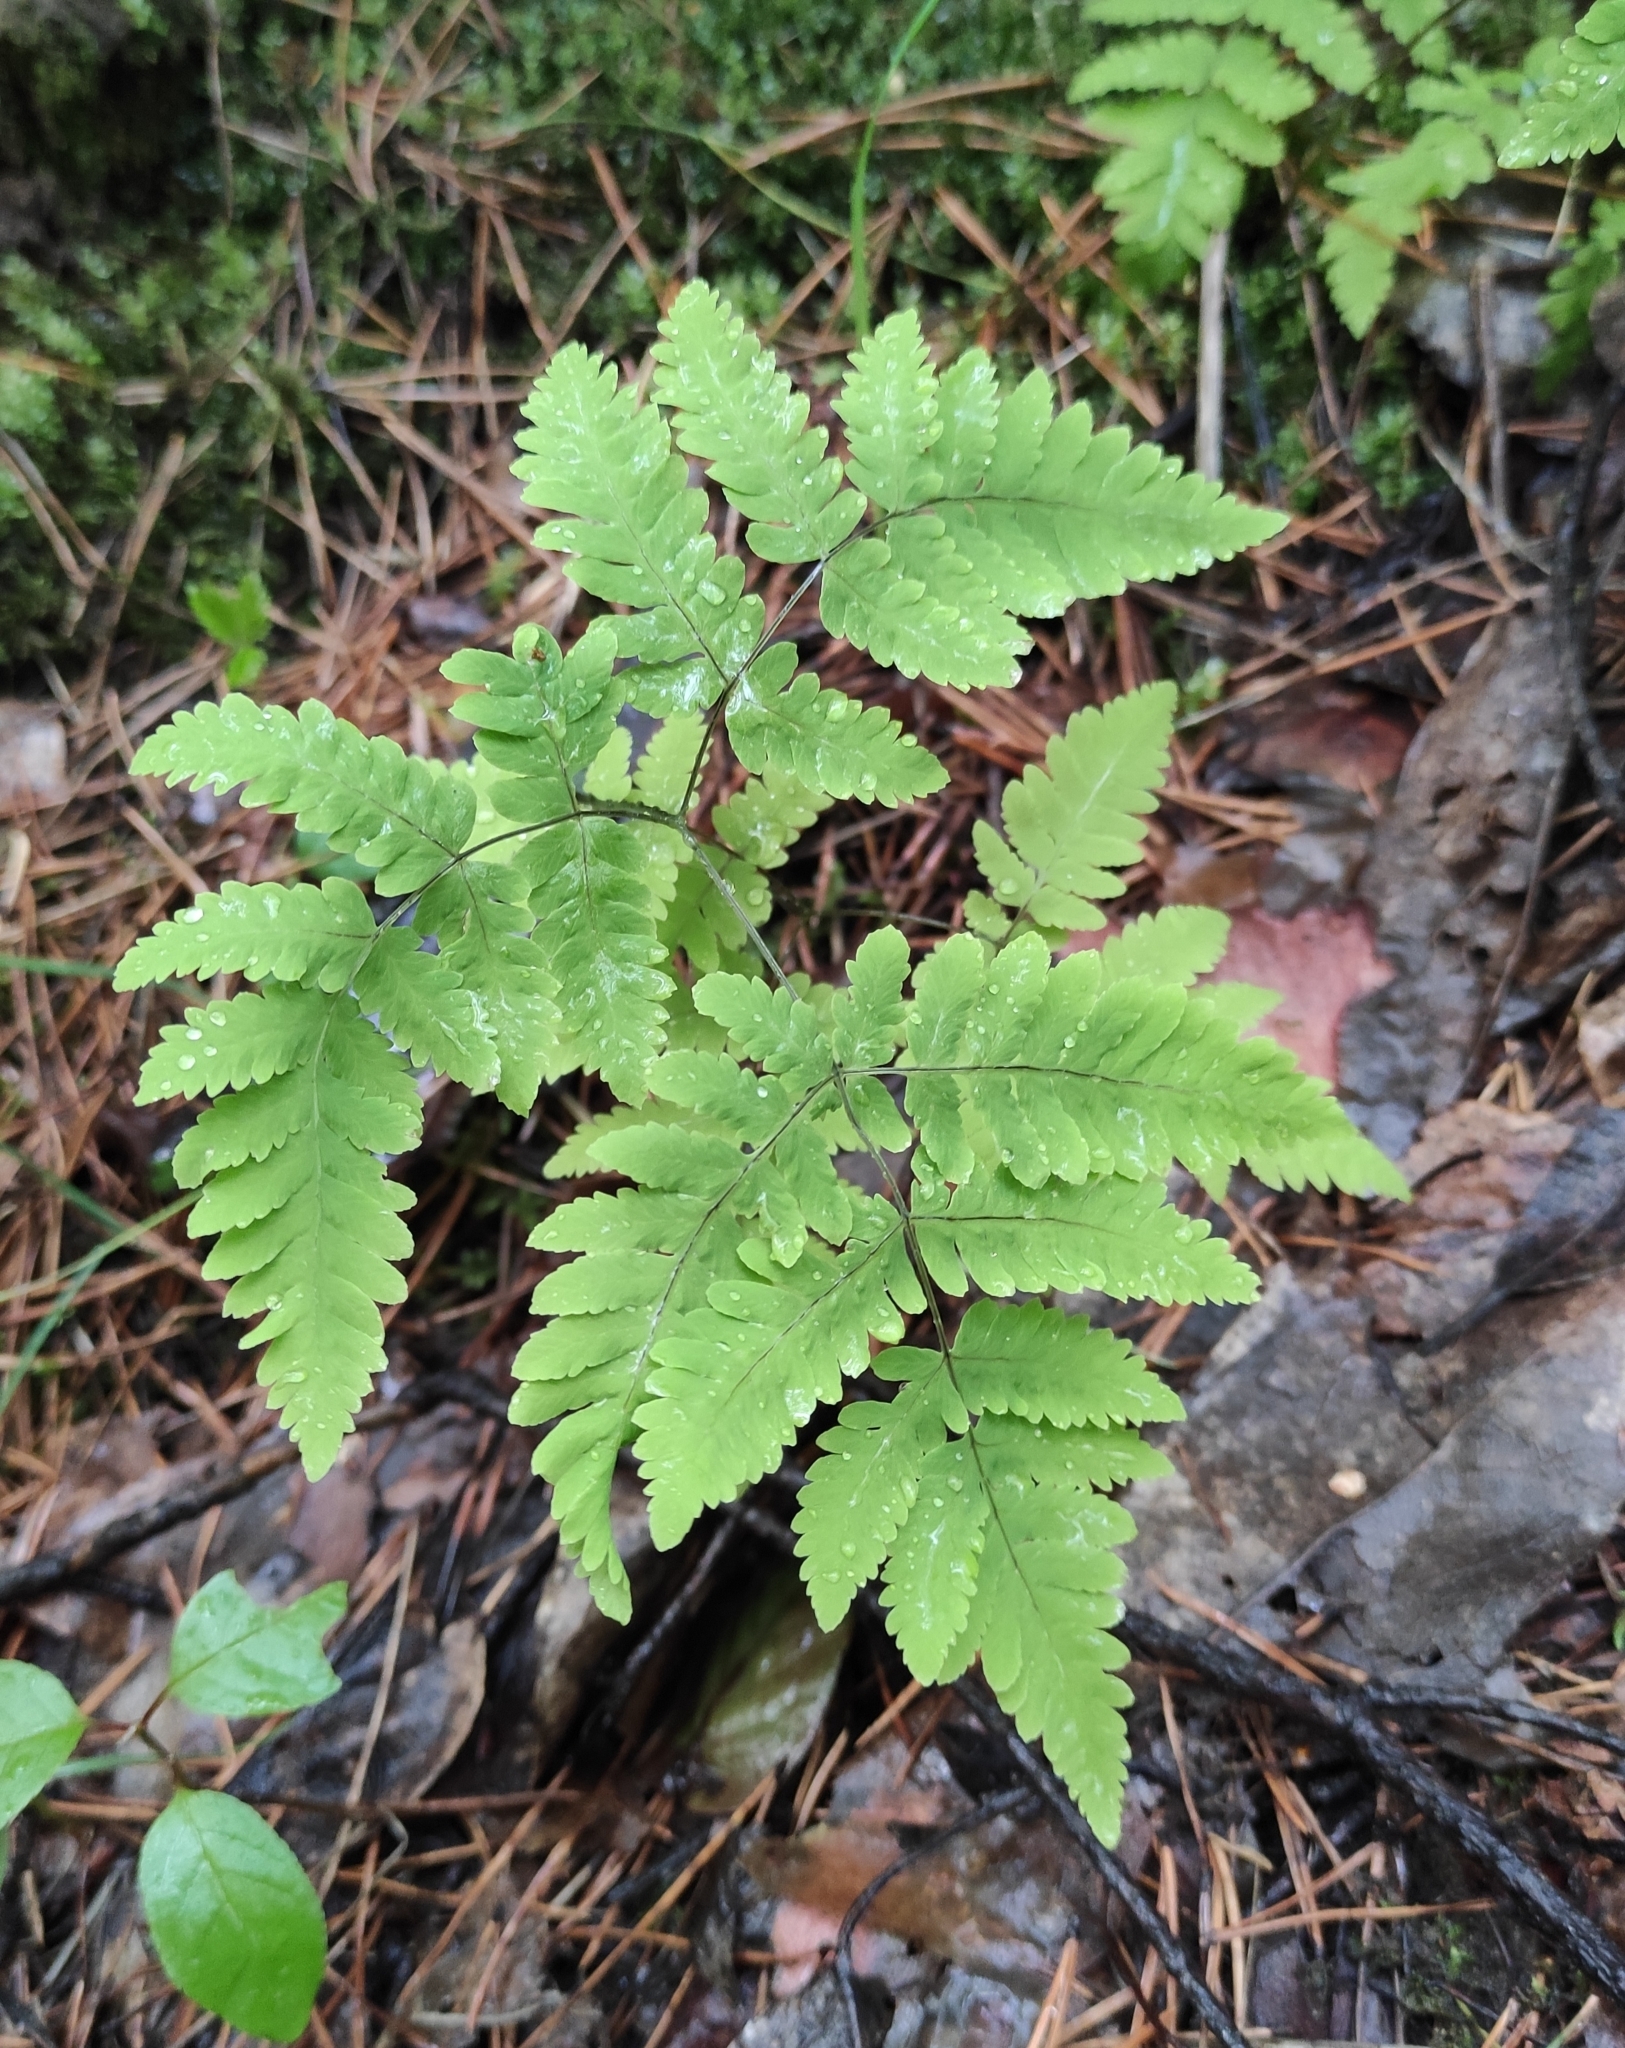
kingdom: Plantae
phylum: Tracheophyta
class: Polypodiopsida
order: Polypodiales
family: Cystopteridaceae
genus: Gymnocarpium
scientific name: Gymnocarpium dryopteris
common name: Oak fern
